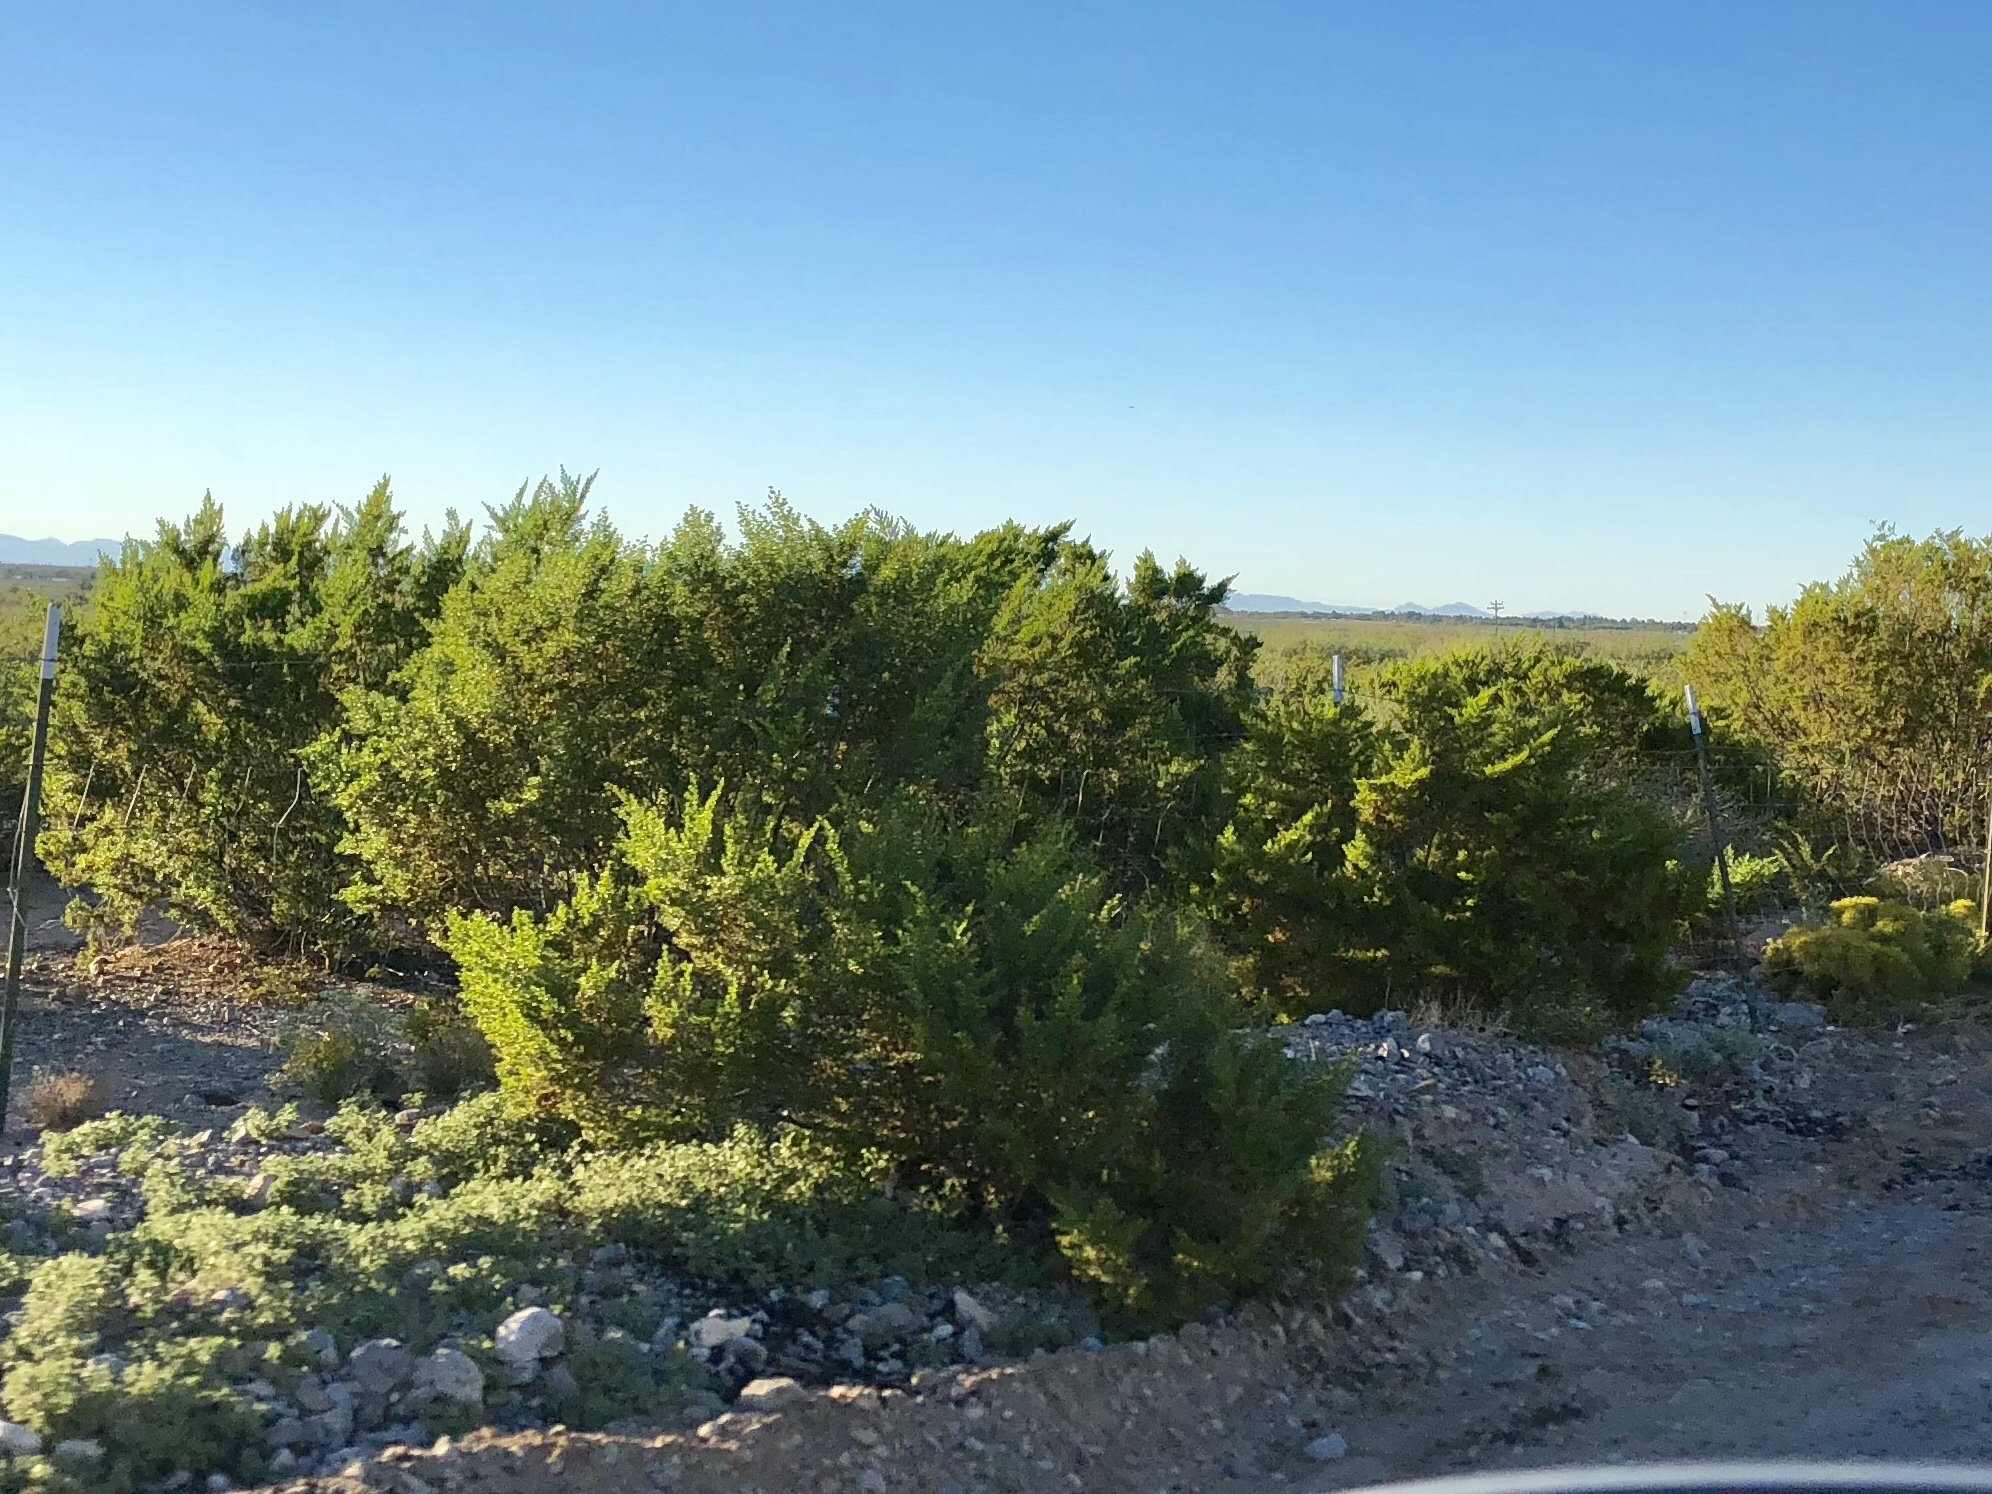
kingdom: Plantae
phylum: Tracheophyta
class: Magnoliopsida
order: Zygophyllales
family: Zygophyllaceae
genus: Larrea
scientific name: Larrea tridentata
